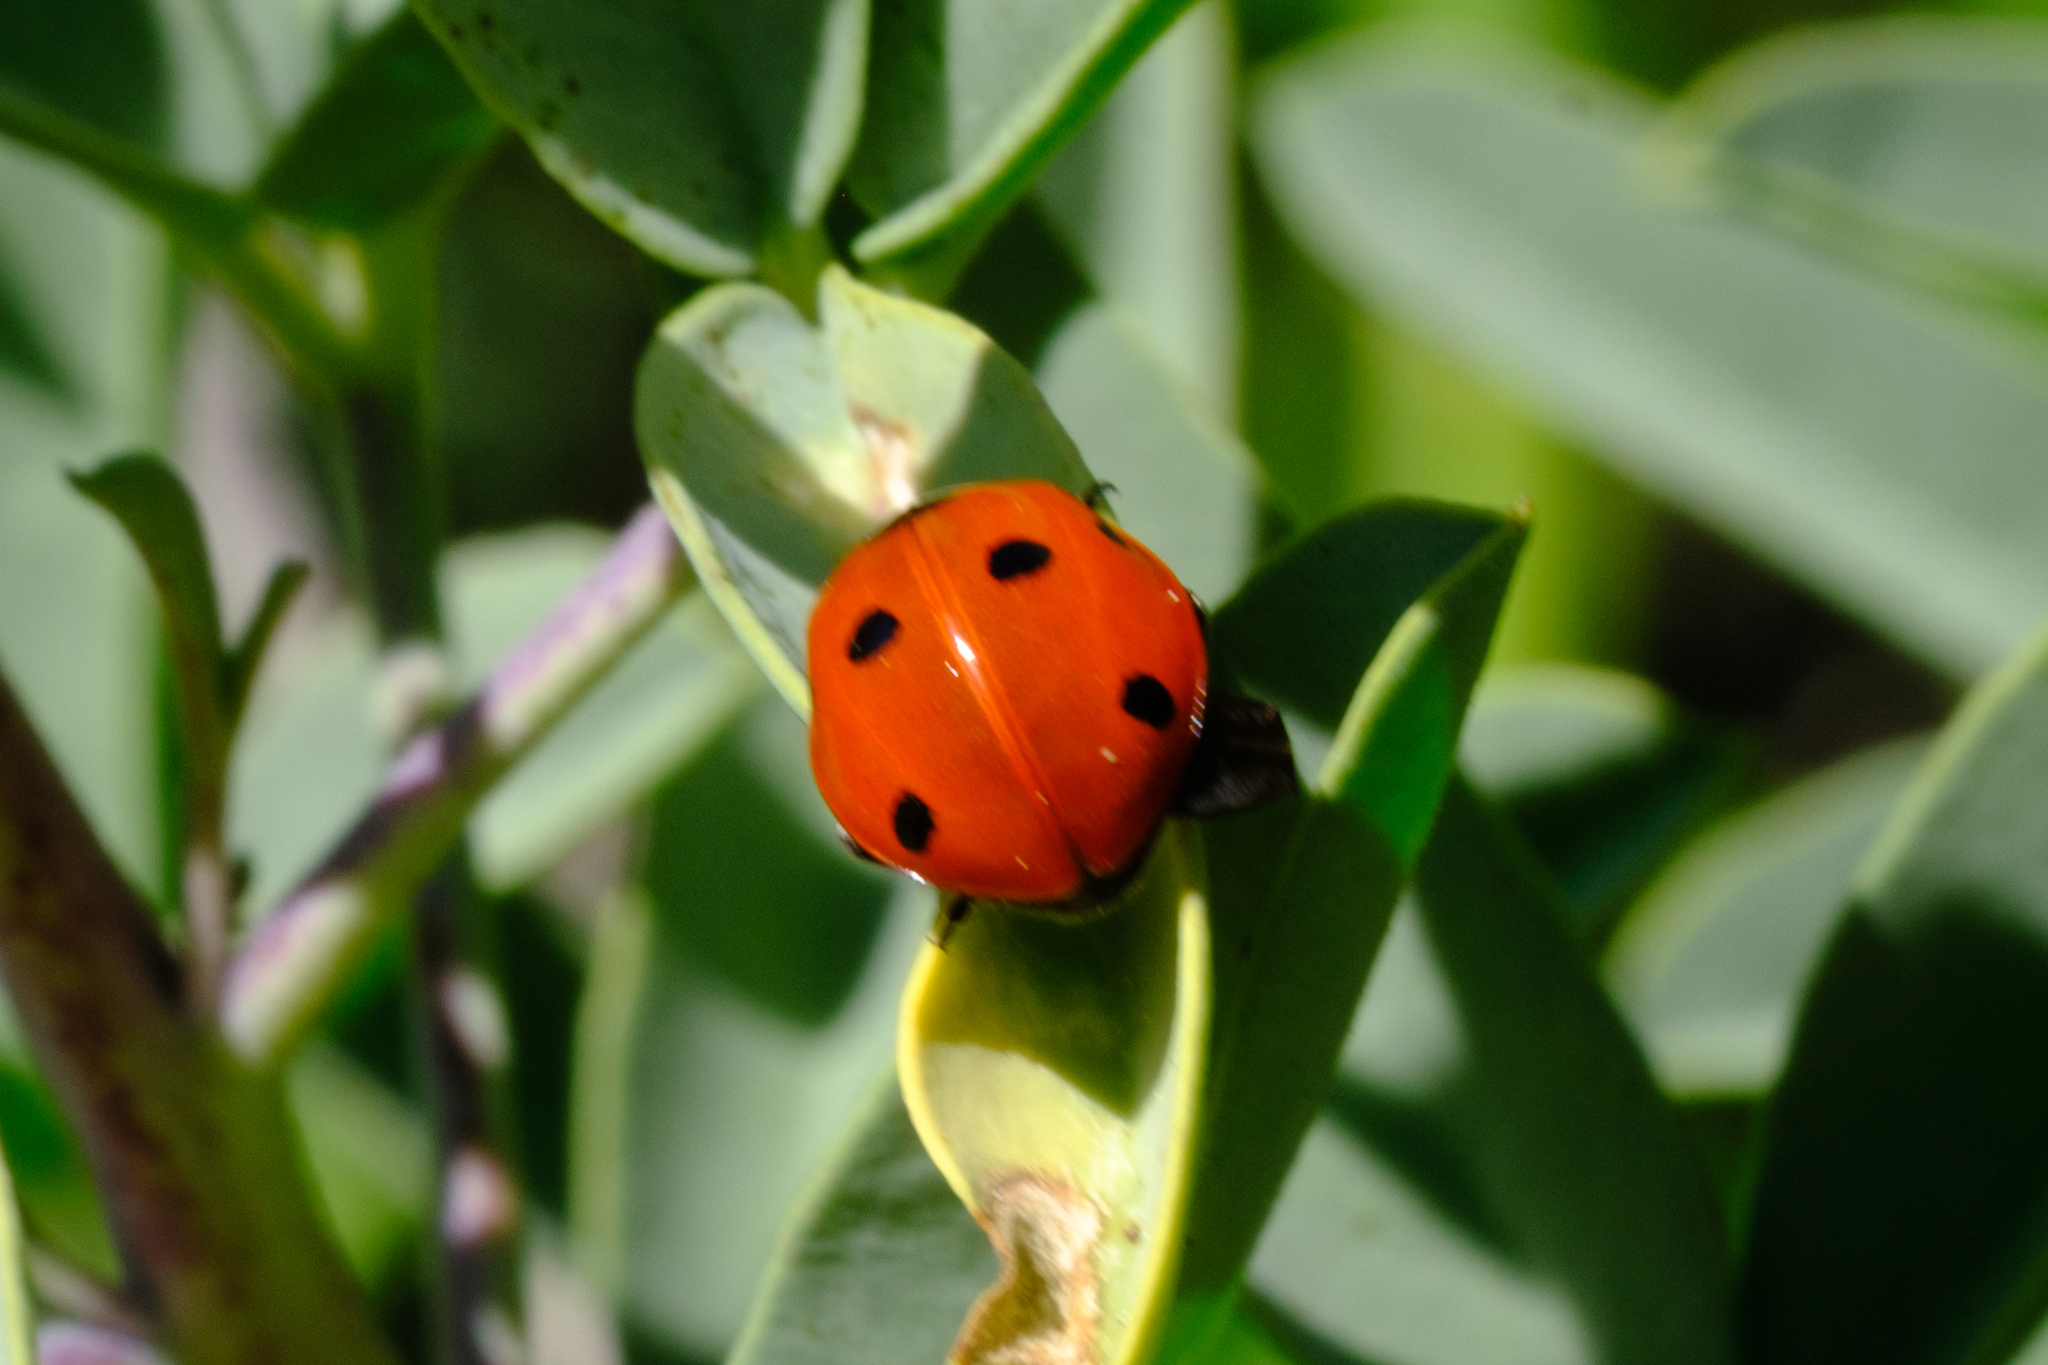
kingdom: Animalia
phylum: Arthropoda
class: Insecta
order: Coleoptera
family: Coccinellidae
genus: Coccinella
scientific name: Coccinella septempunctata
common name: Sevenspotted lady beetle
